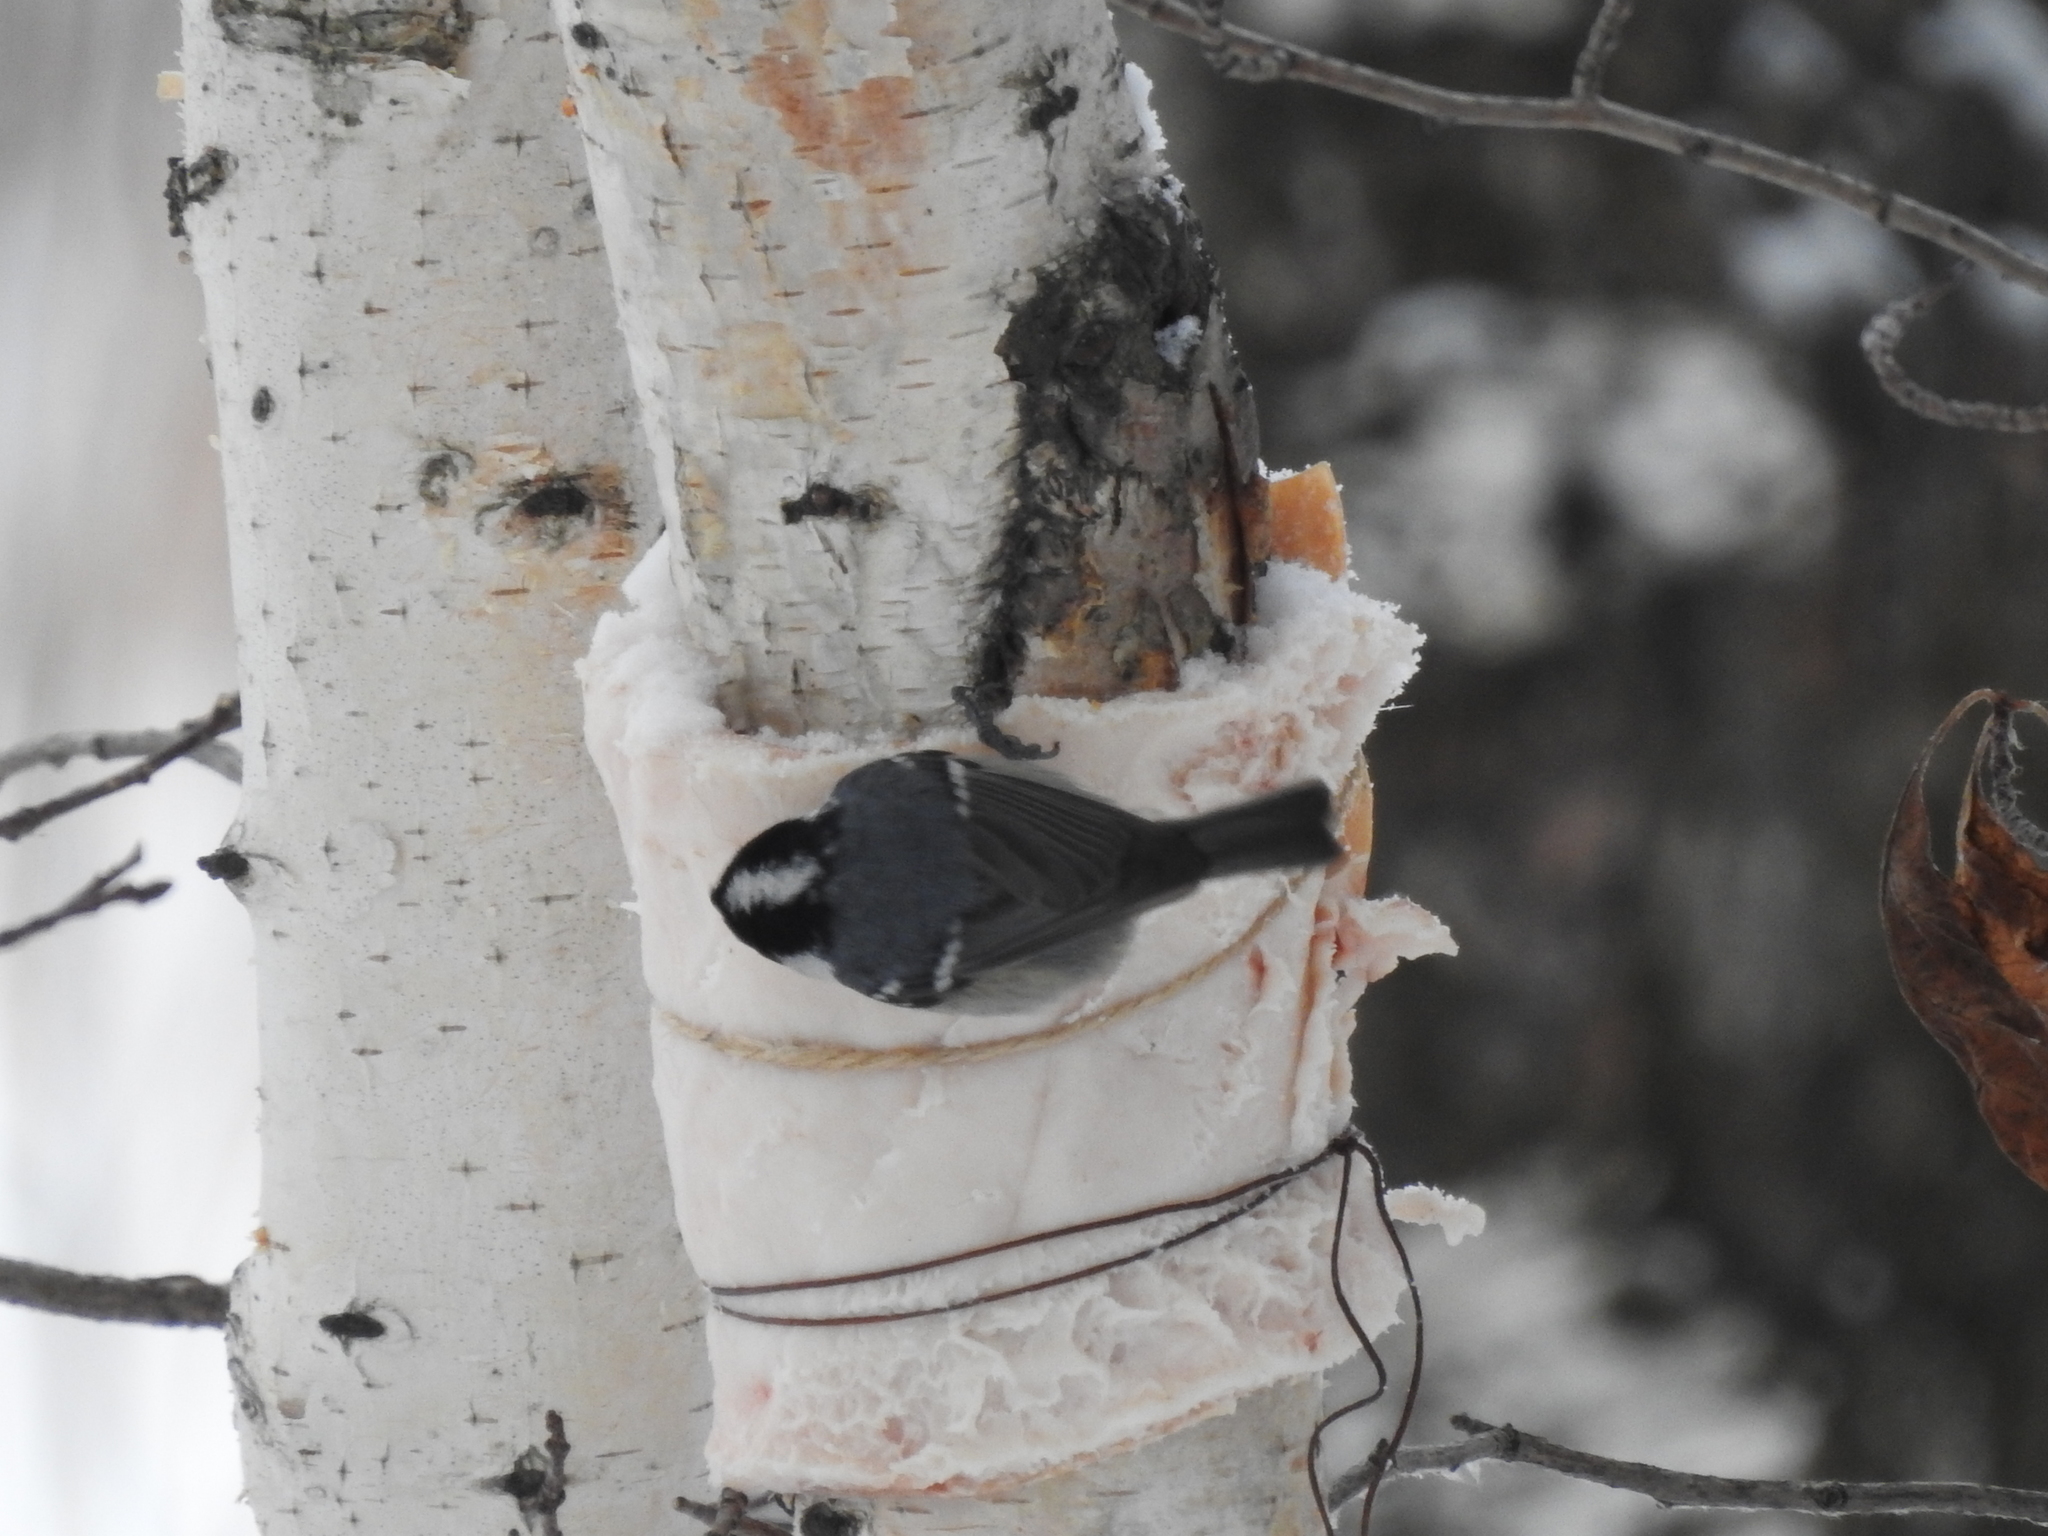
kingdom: Animalia
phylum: Chordata
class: Aves
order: Passeriformes
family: Paridae
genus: Periparus
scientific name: Periparus ater
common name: Coal tit
